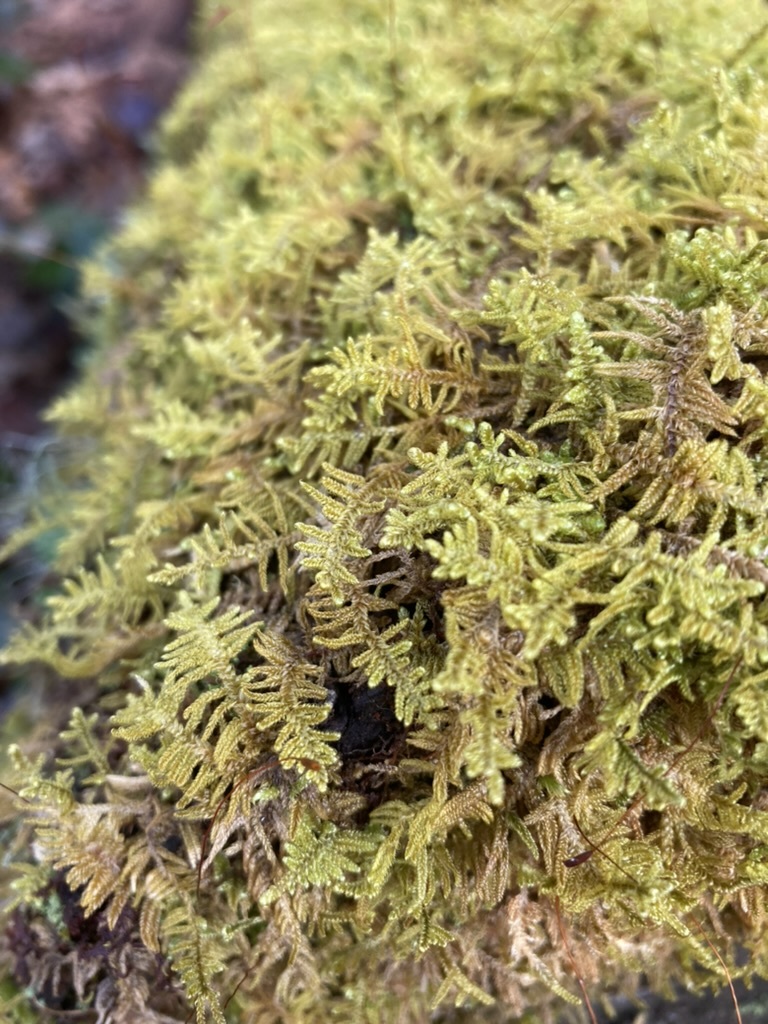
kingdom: Plantae
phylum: Bryophyta
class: Bryopsida
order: Hypnales
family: Callicladiaceae
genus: Callicladium
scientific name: Callicladium imponens
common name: Brocade moss
